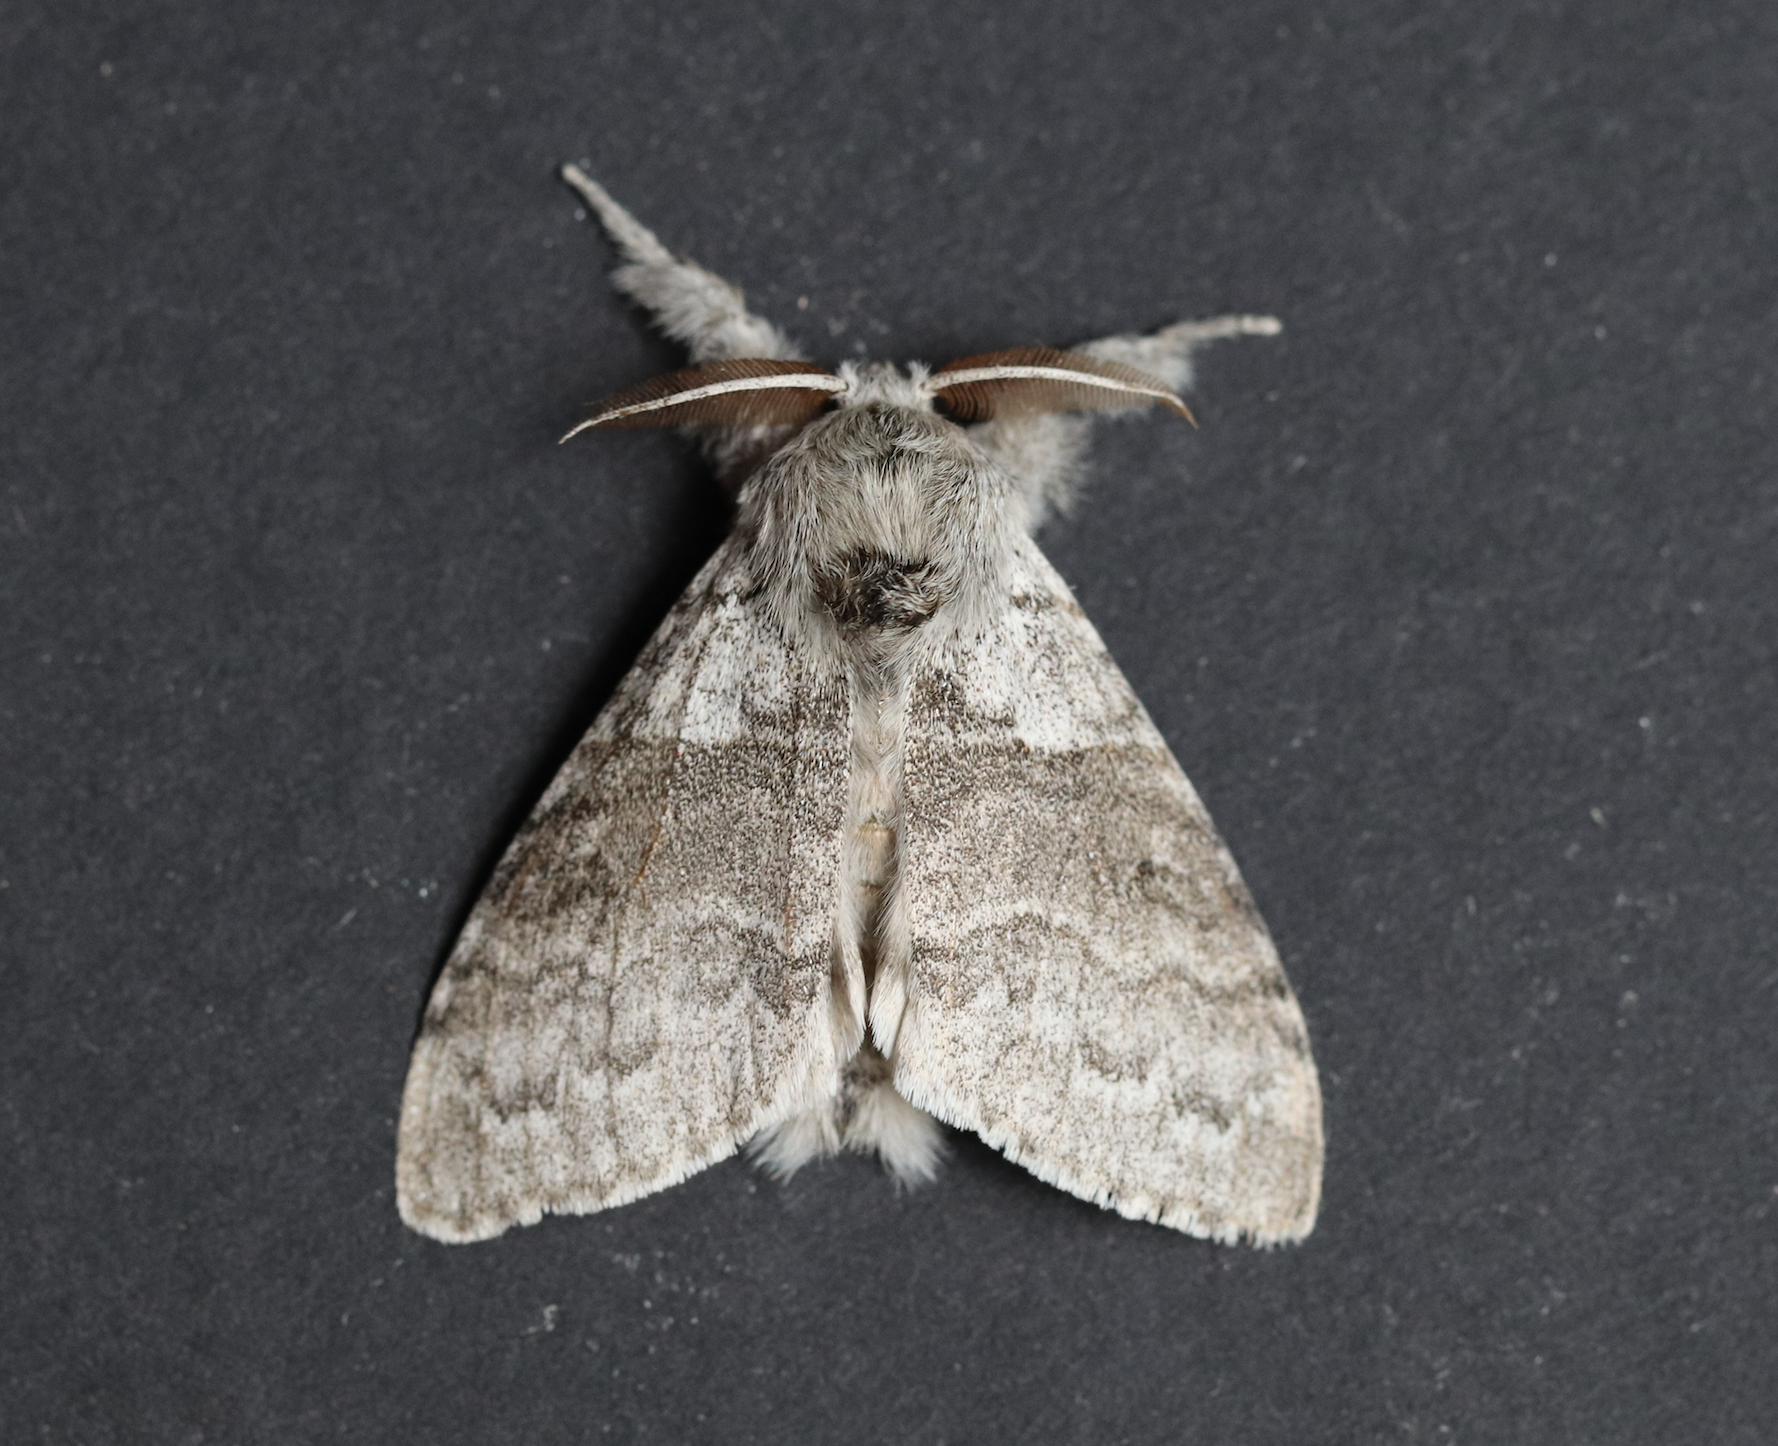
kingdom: Animalia
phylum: Arthropoda
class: Insecta
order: Lepidoptera
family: Erebidae
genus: Calliteara
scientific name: Calliteara pudibunda
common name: Pale tussock
